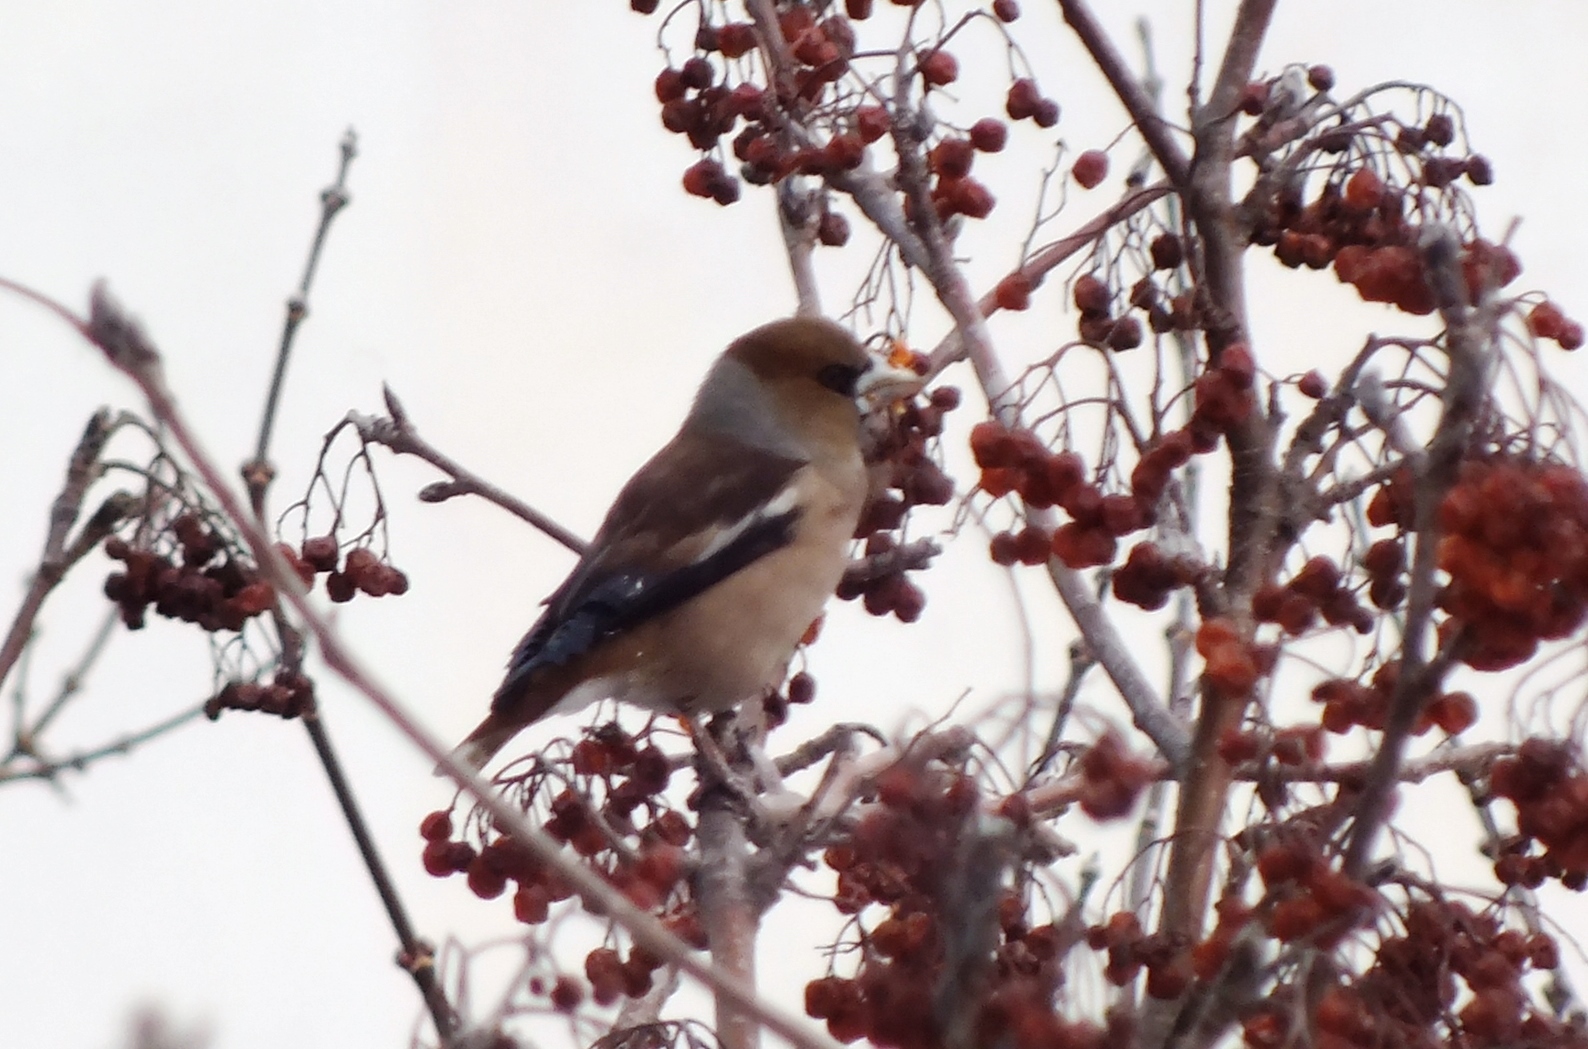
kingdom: Animalia
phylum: Chordata
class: Aves
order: Passeriformes
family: Fringillidae
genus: Coccothraustes
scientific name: Coccothraustes coccothraustes
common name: Hawfinch
